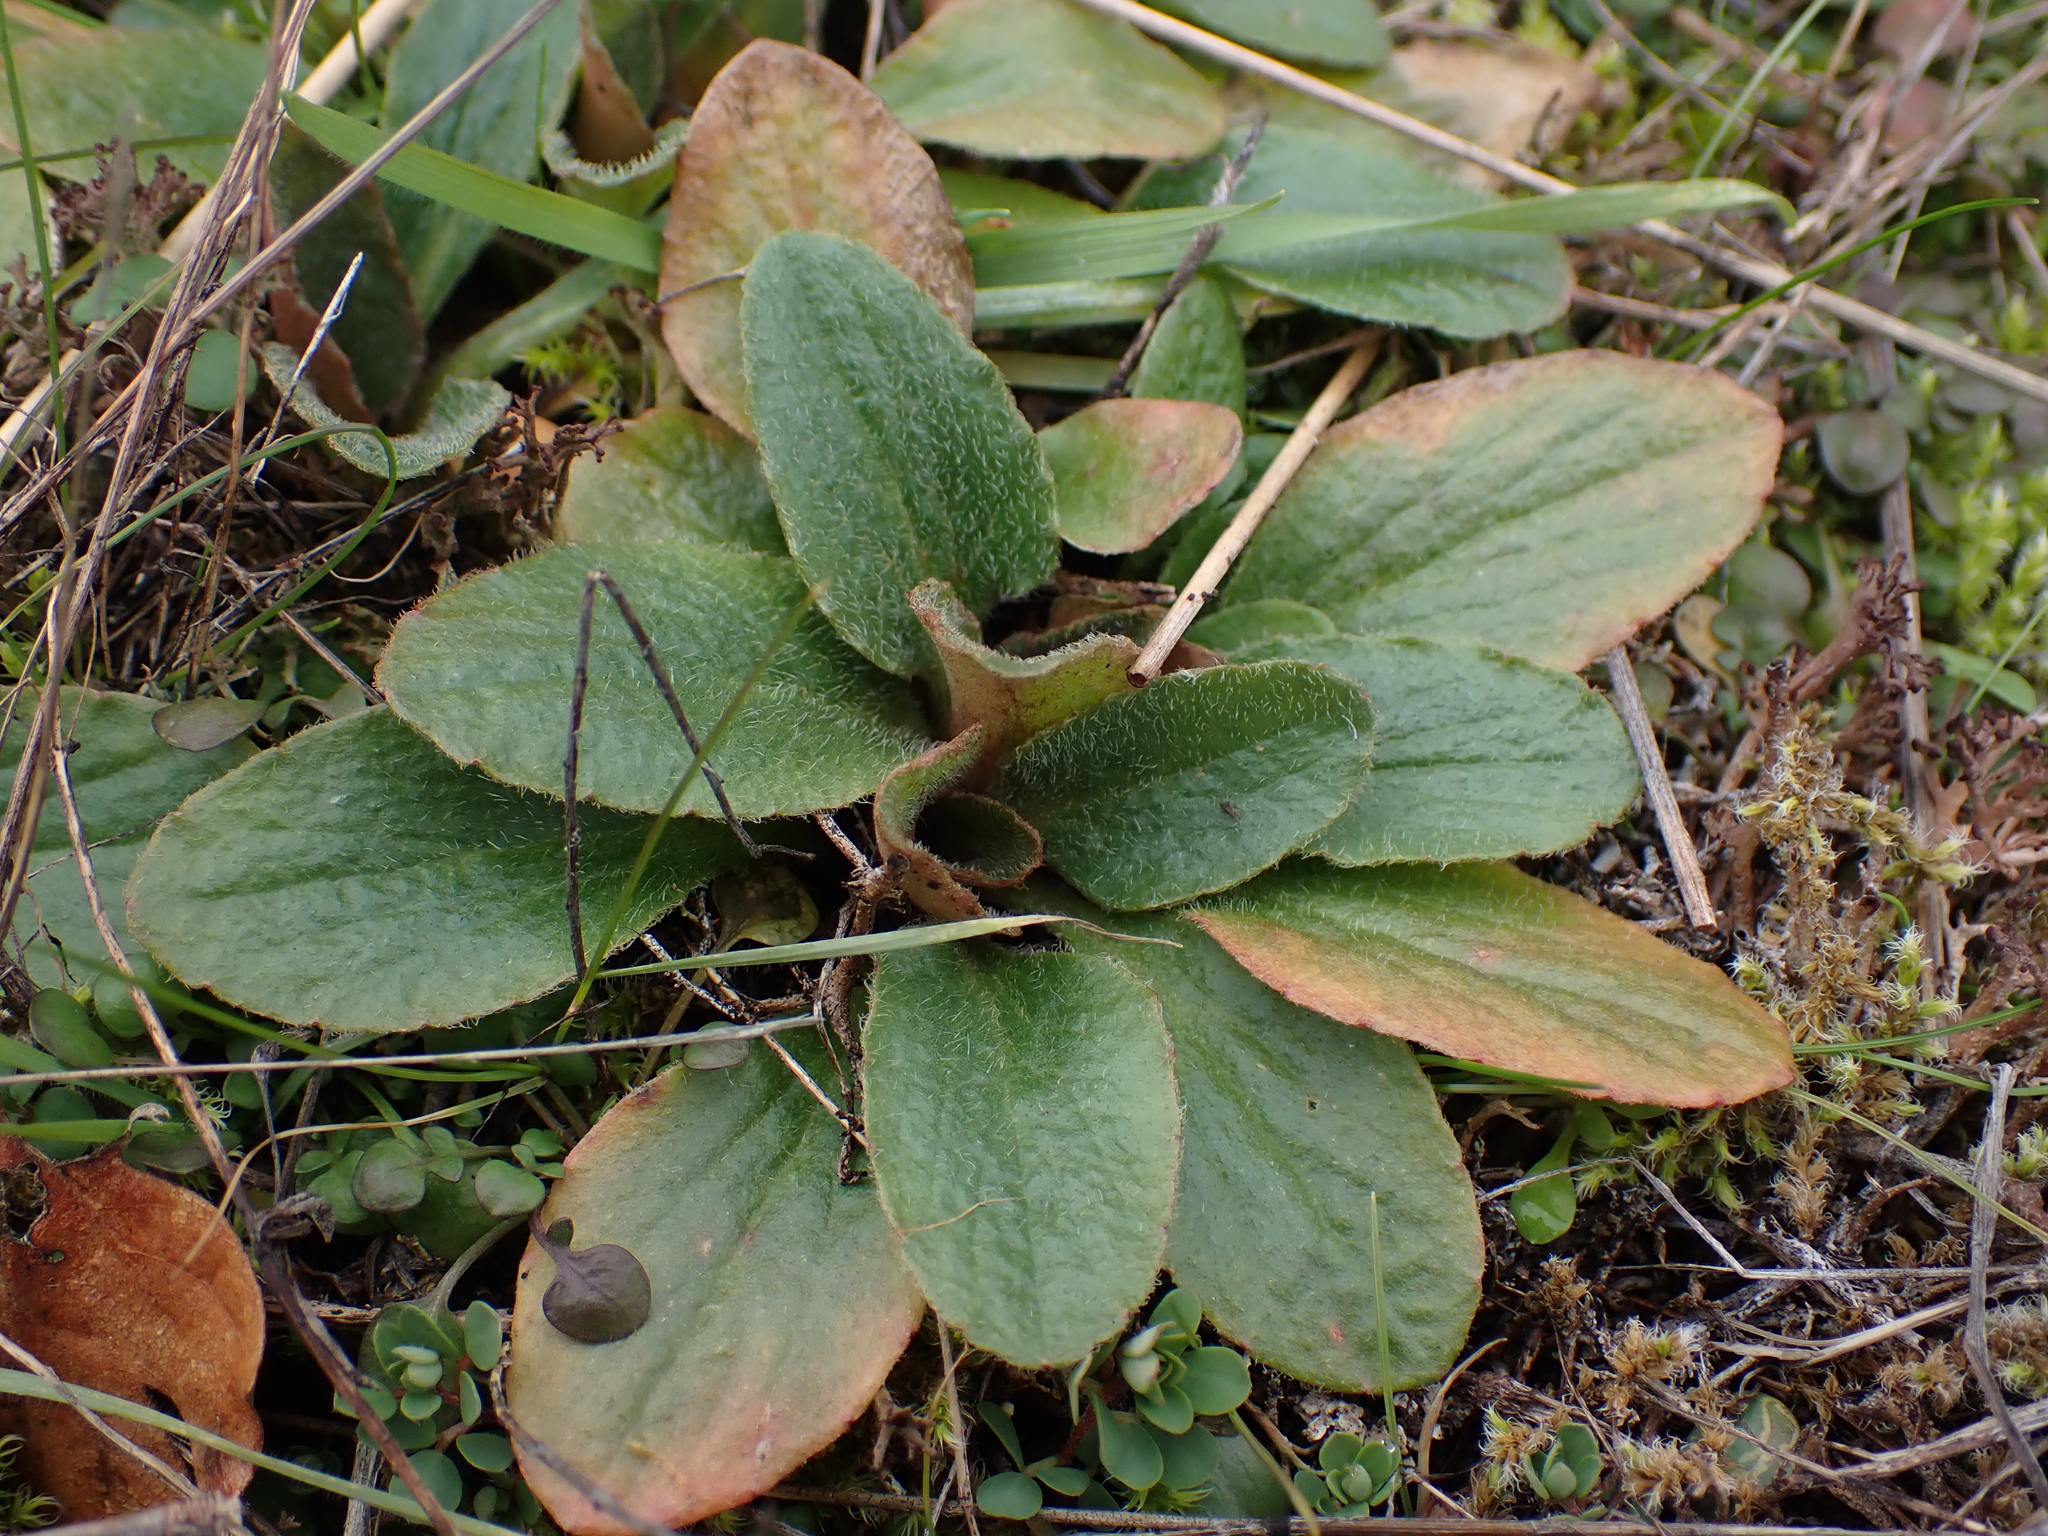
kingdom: Plantae
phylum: Tracheophyta
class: Magnoliopsida
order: Saxifragales
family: Saxifragaceae
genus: Micranthes
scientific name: Micranthes integrifolia
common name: Wholeleaf saxifrage
